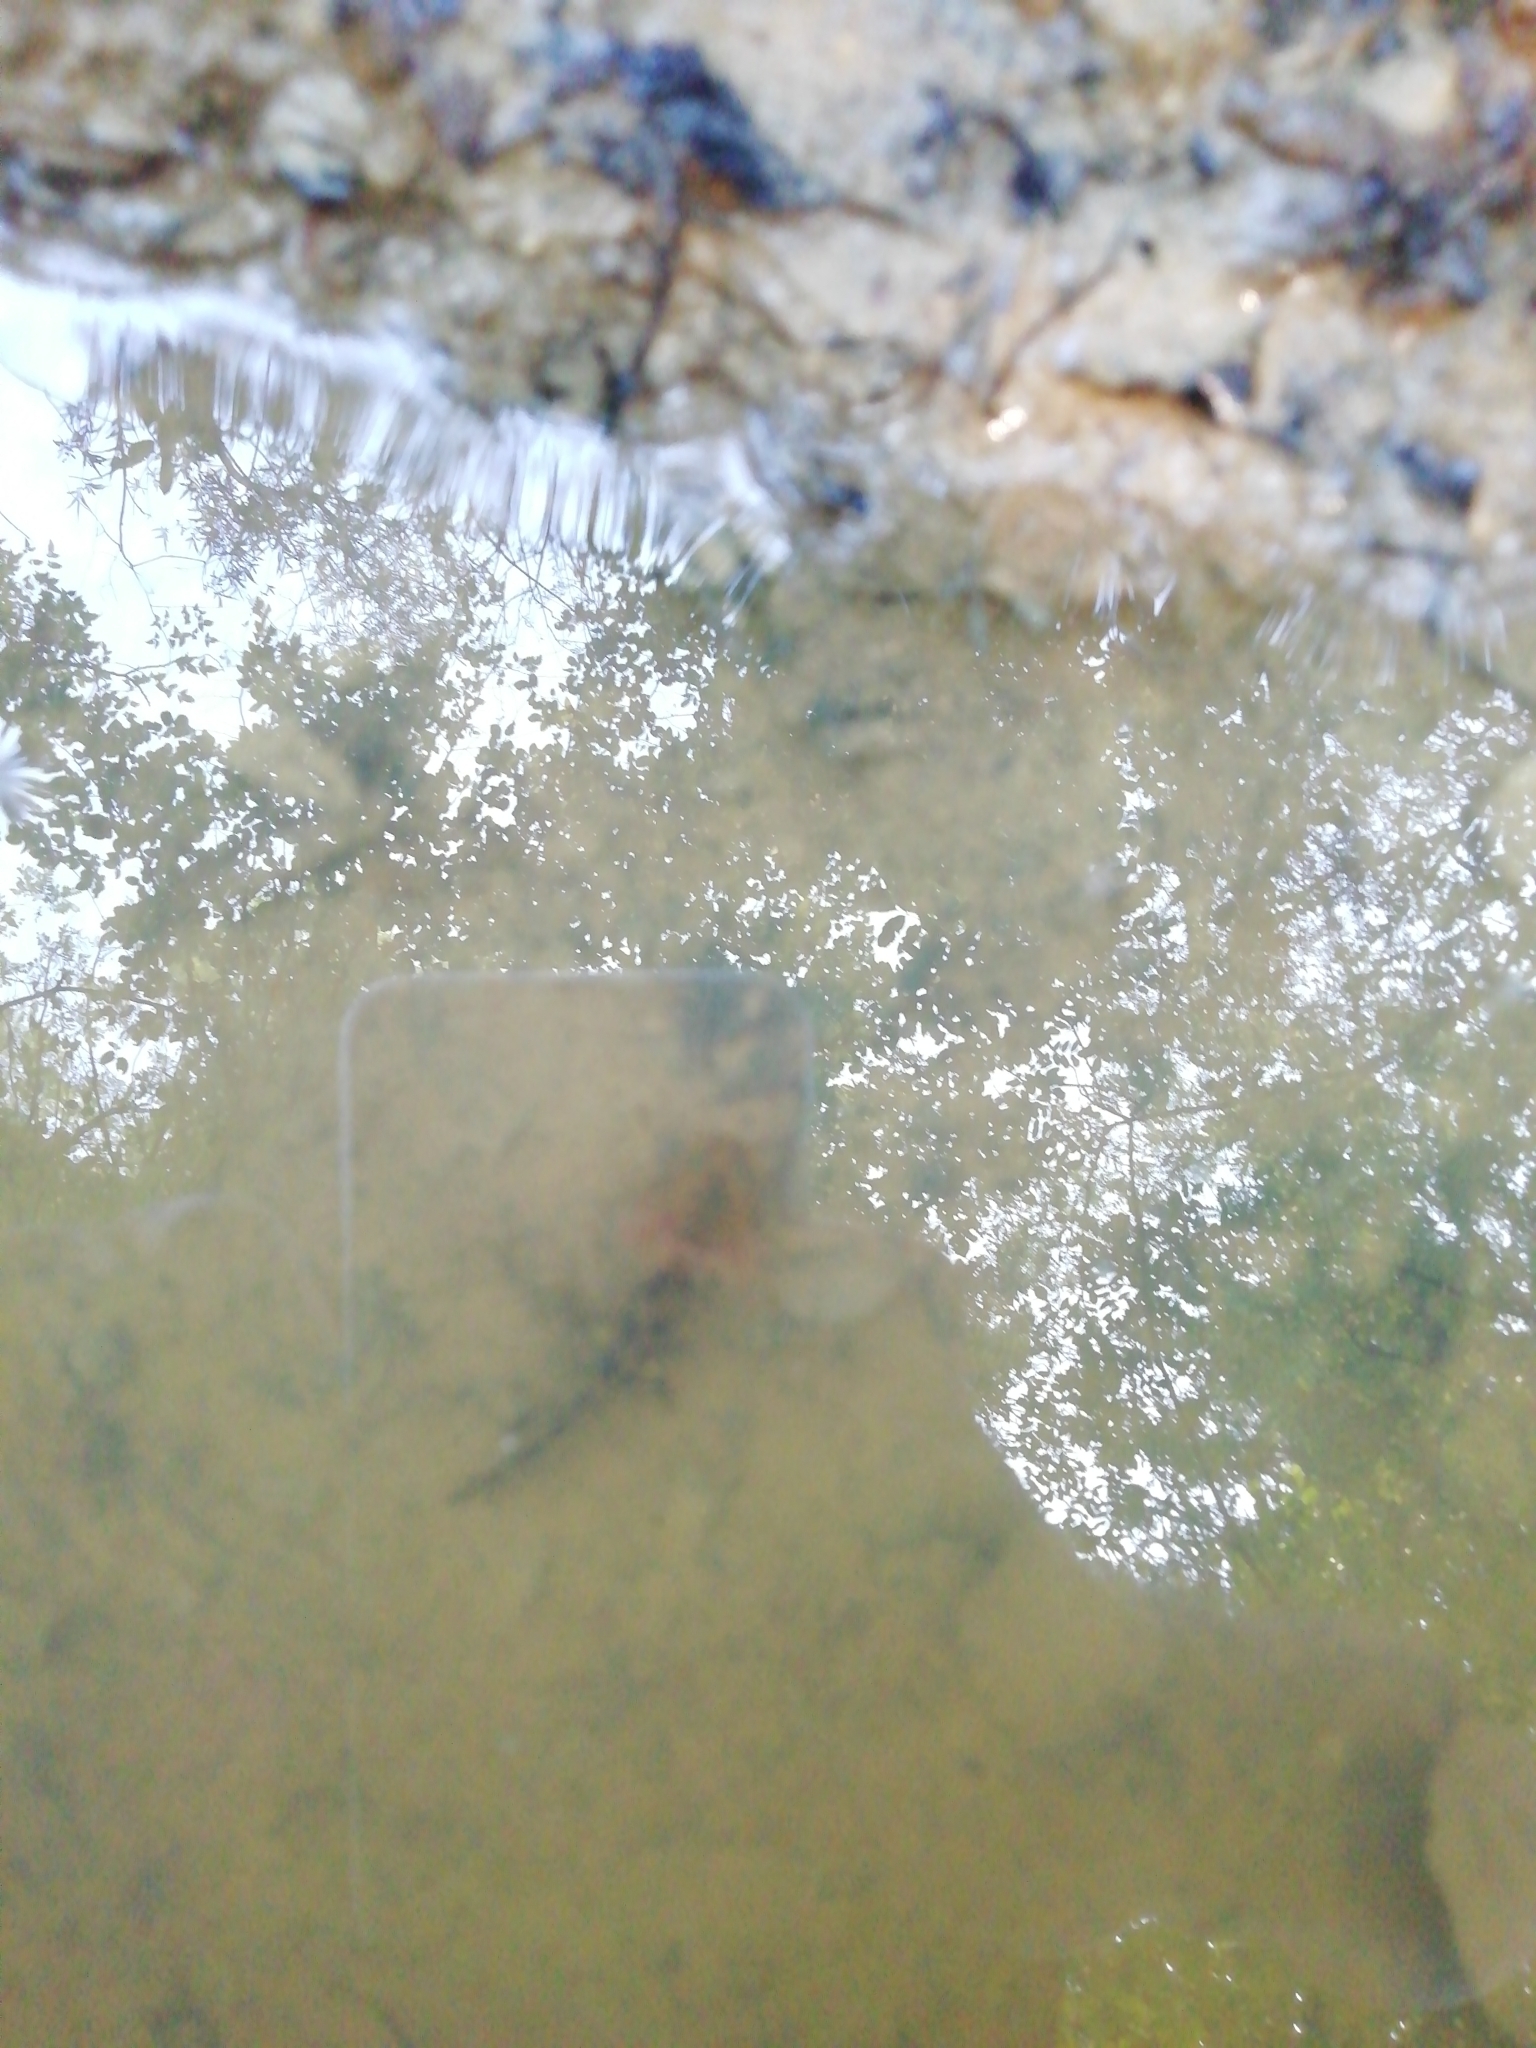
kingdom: Animalia
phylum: Chordata
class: Amphibia
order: Caudata
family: Salamandridae
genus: Salamandra
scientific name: Salamandra salamandra
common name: Fire salamander
